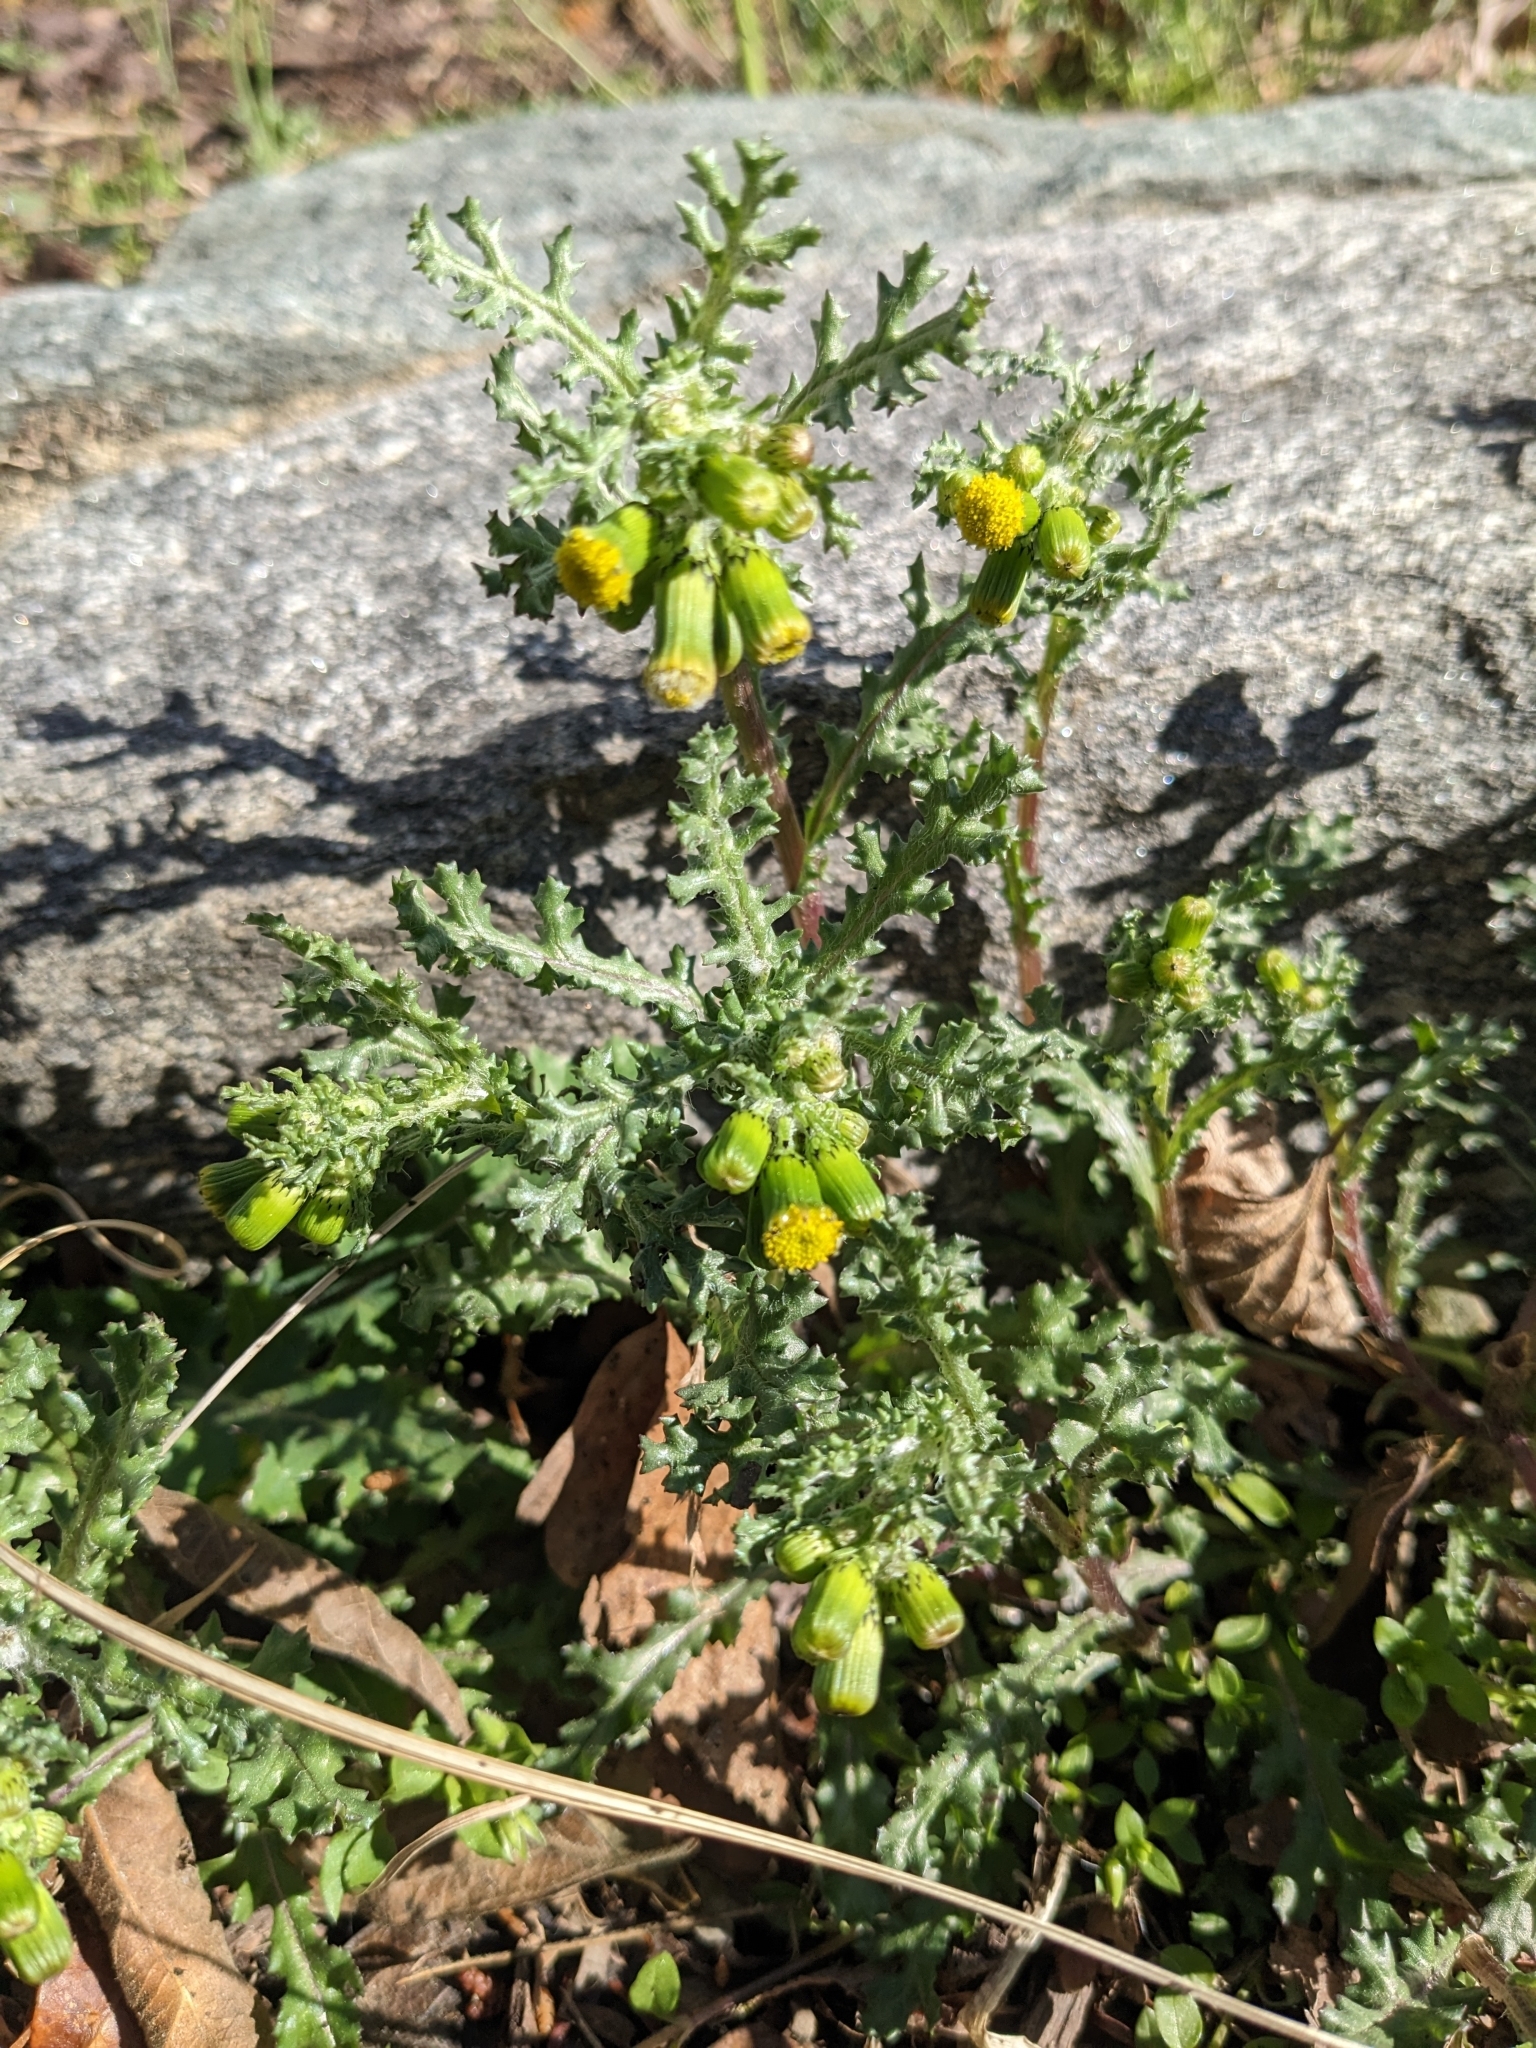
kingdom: Plantae
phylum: Tracheophyta
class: Magnoliopsida
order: Asterales
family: Asteraceae
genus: Senecio
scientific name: Senecio vulgaris
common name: Old-man-in-the-spring
